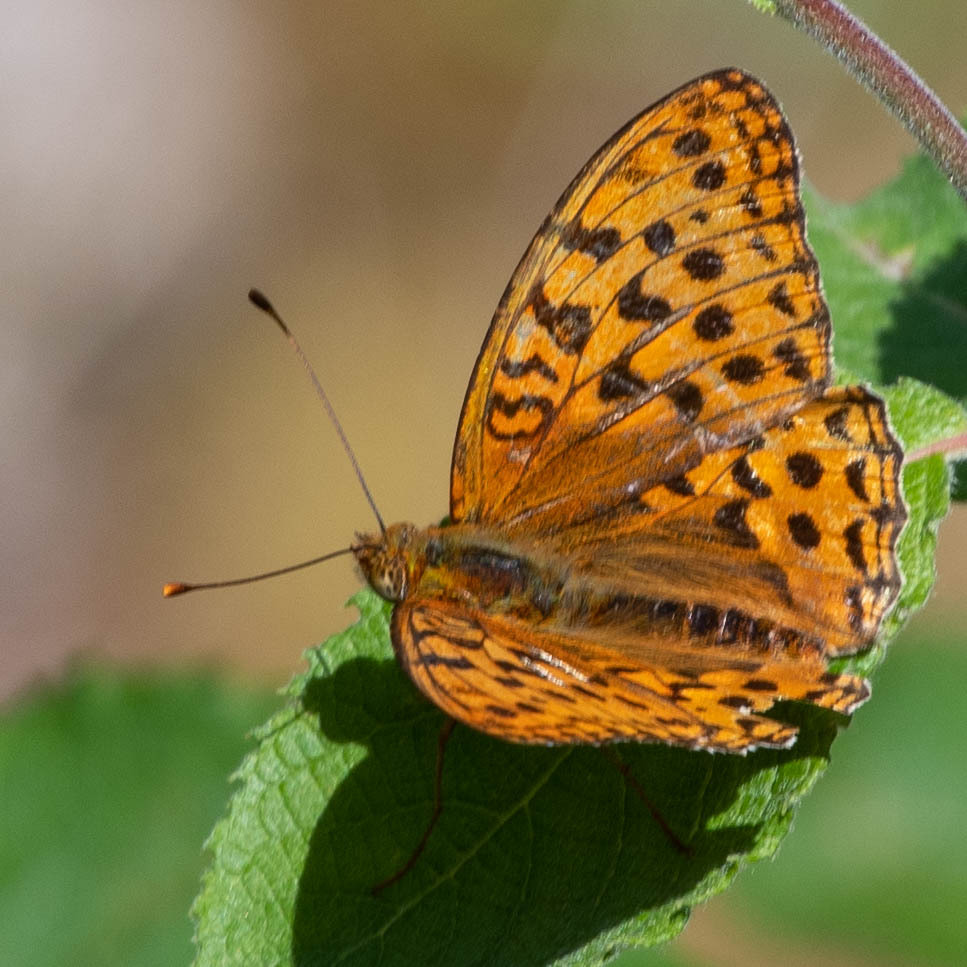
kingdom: Animalia
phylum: Arthropoda
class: Insecta
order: Lepidoptera
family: Nymphalidae
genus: Fabriciana
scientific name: Fabriciana adippe
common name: High brown fritillary
